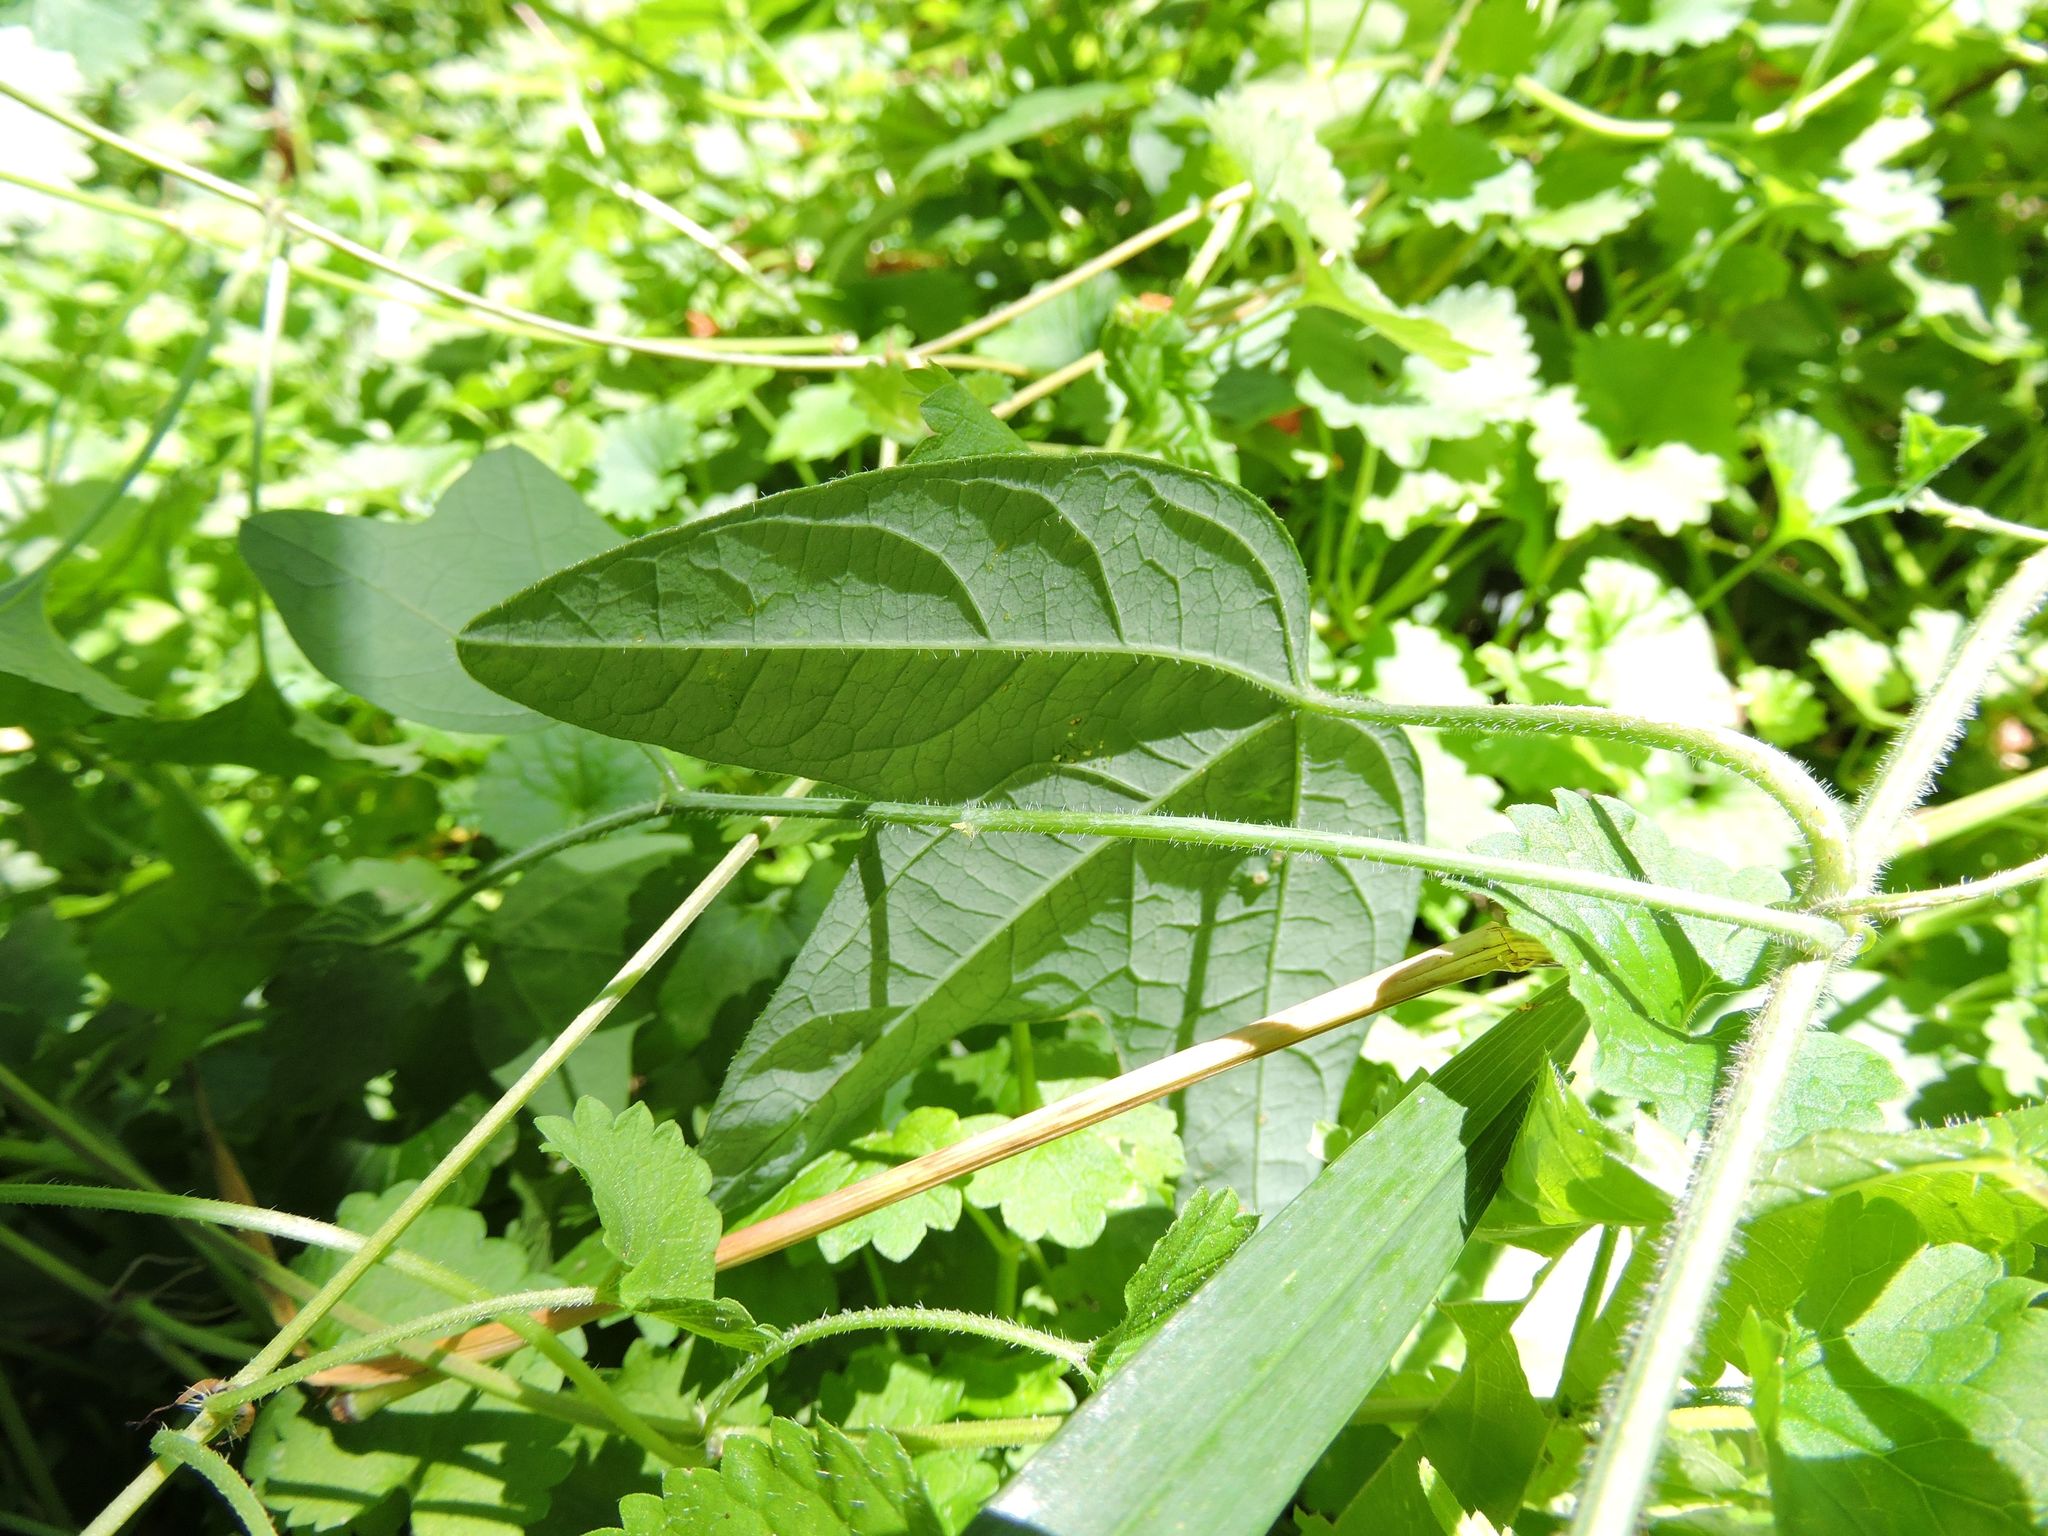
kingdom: Plantae
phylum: Tracheophyta
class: Magnoliopsida
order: Malpighiales
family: Passifloraceae
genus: Passiflora
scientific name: Passiflora lutea
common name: Yellow passionflower
